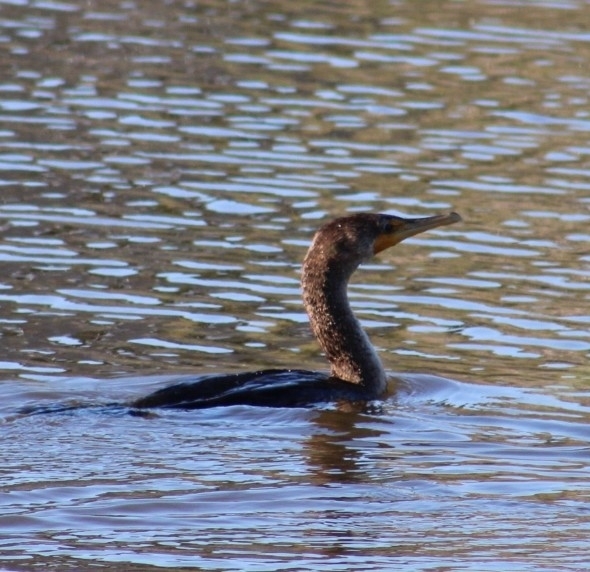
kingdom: Animalia
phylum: Chordata
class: Aves
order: Suliformes
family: Phalacrocoracidae
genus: Phalacrocorax
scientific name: Phalacrocorax auritus
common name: Double-crested cormorant
